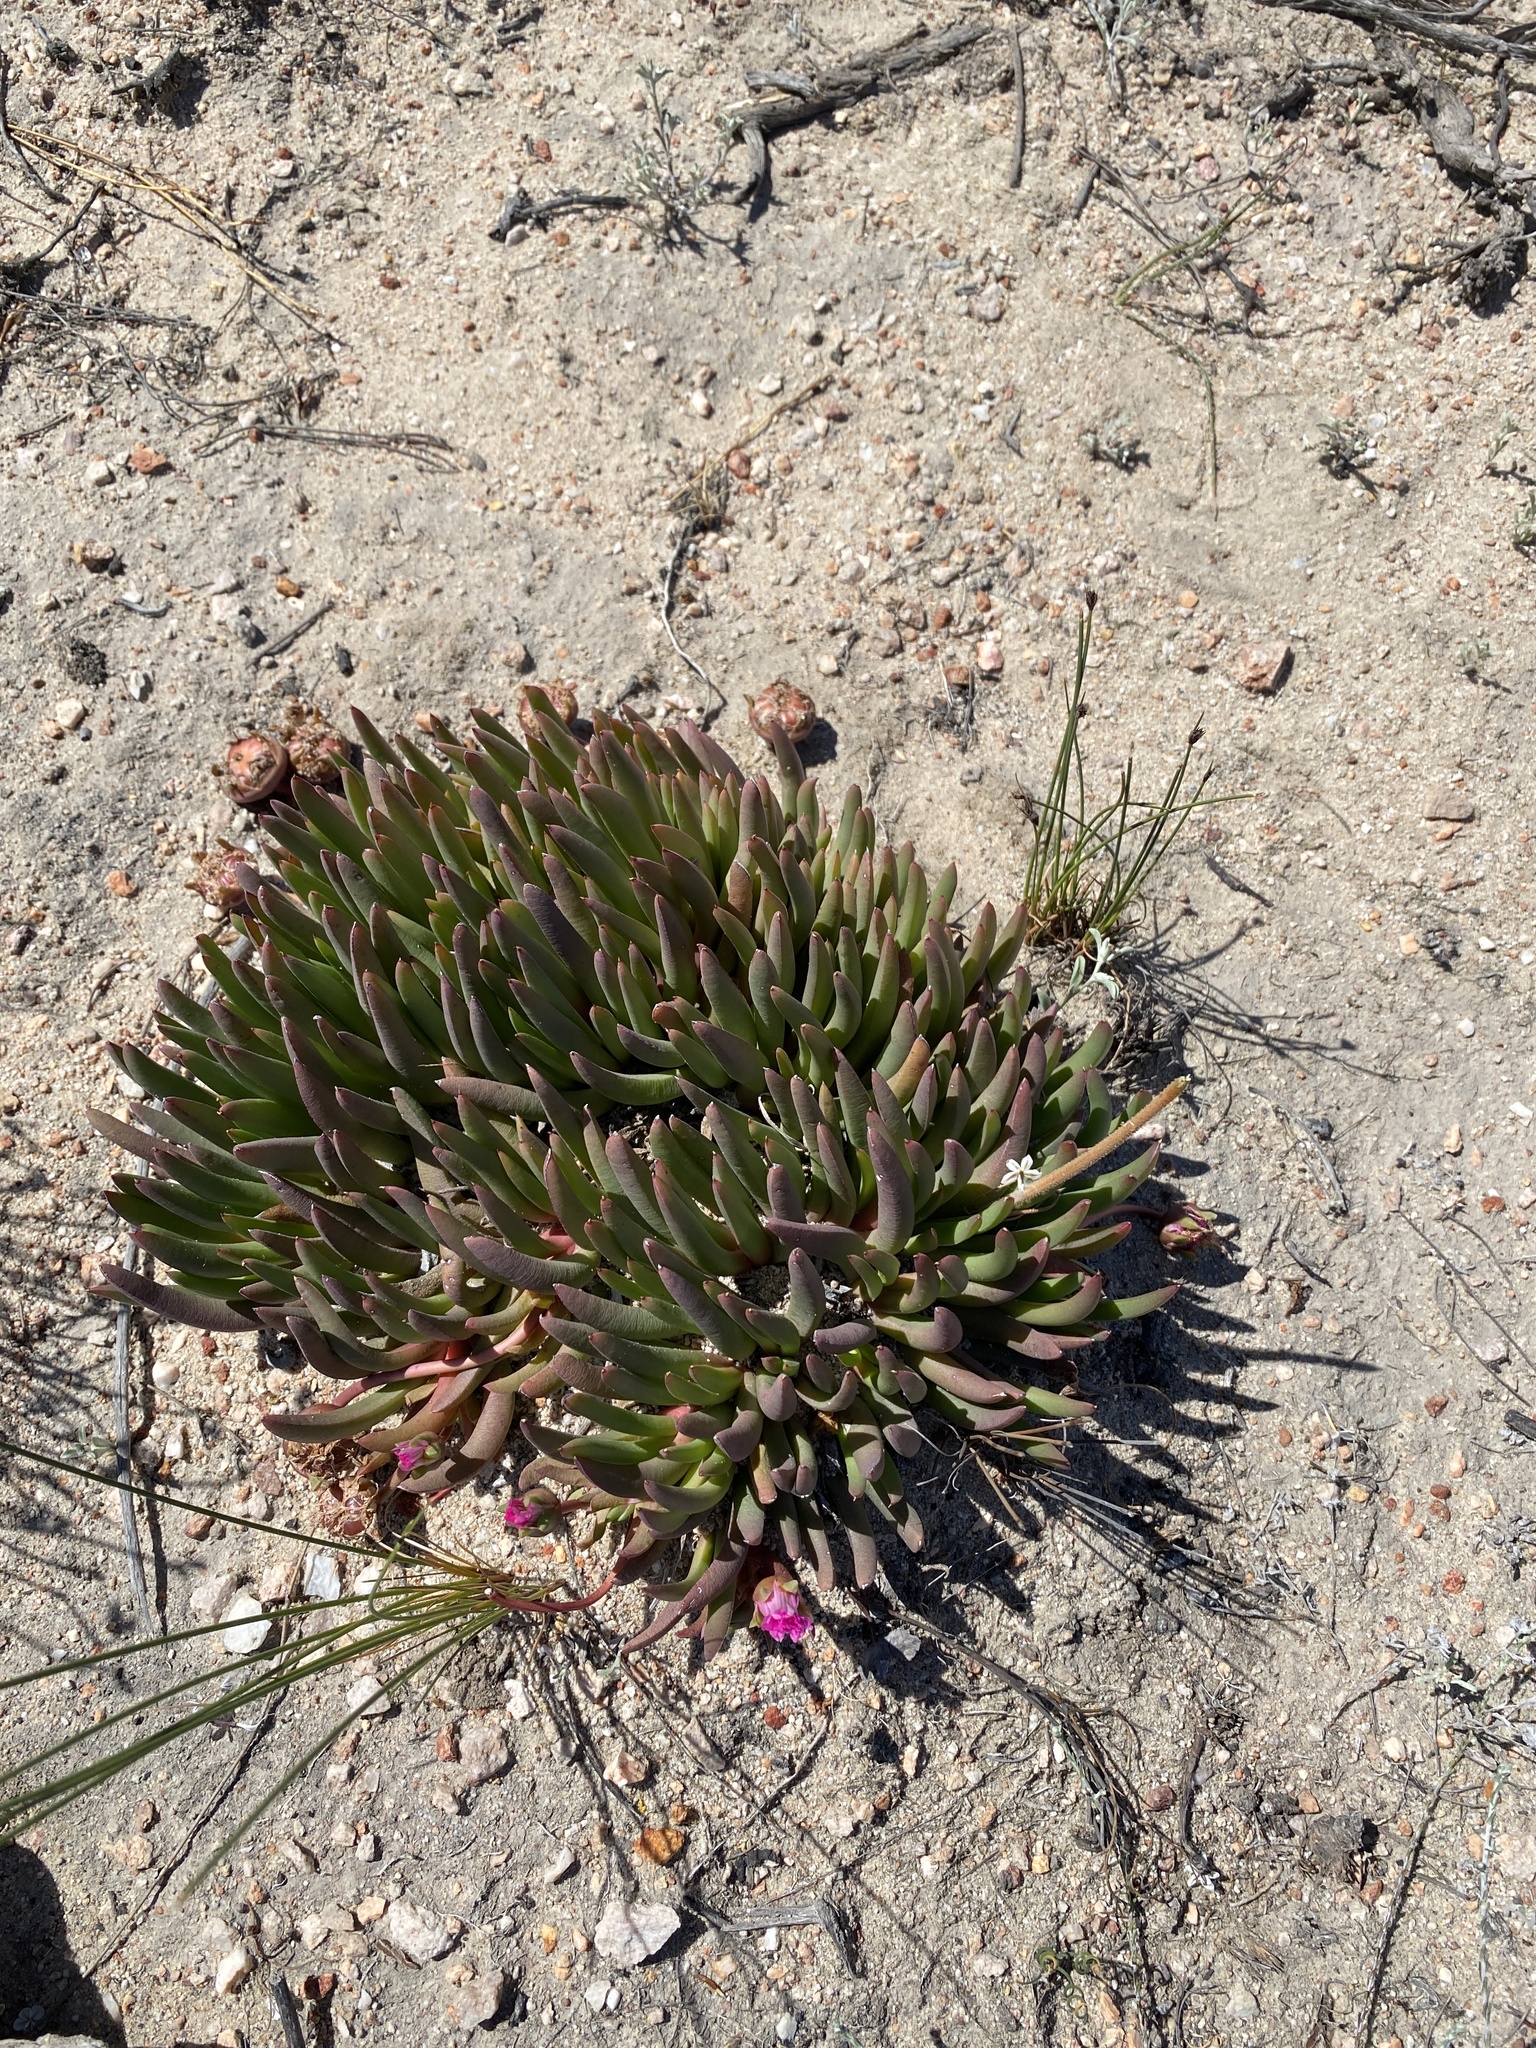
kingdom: Plantae
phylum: Tracheophyta
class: Magnoliopsida
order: Caryophyllales
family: Aizoaceae
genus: Cephalophyllum
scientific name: Cephalophyllum subulatoides
